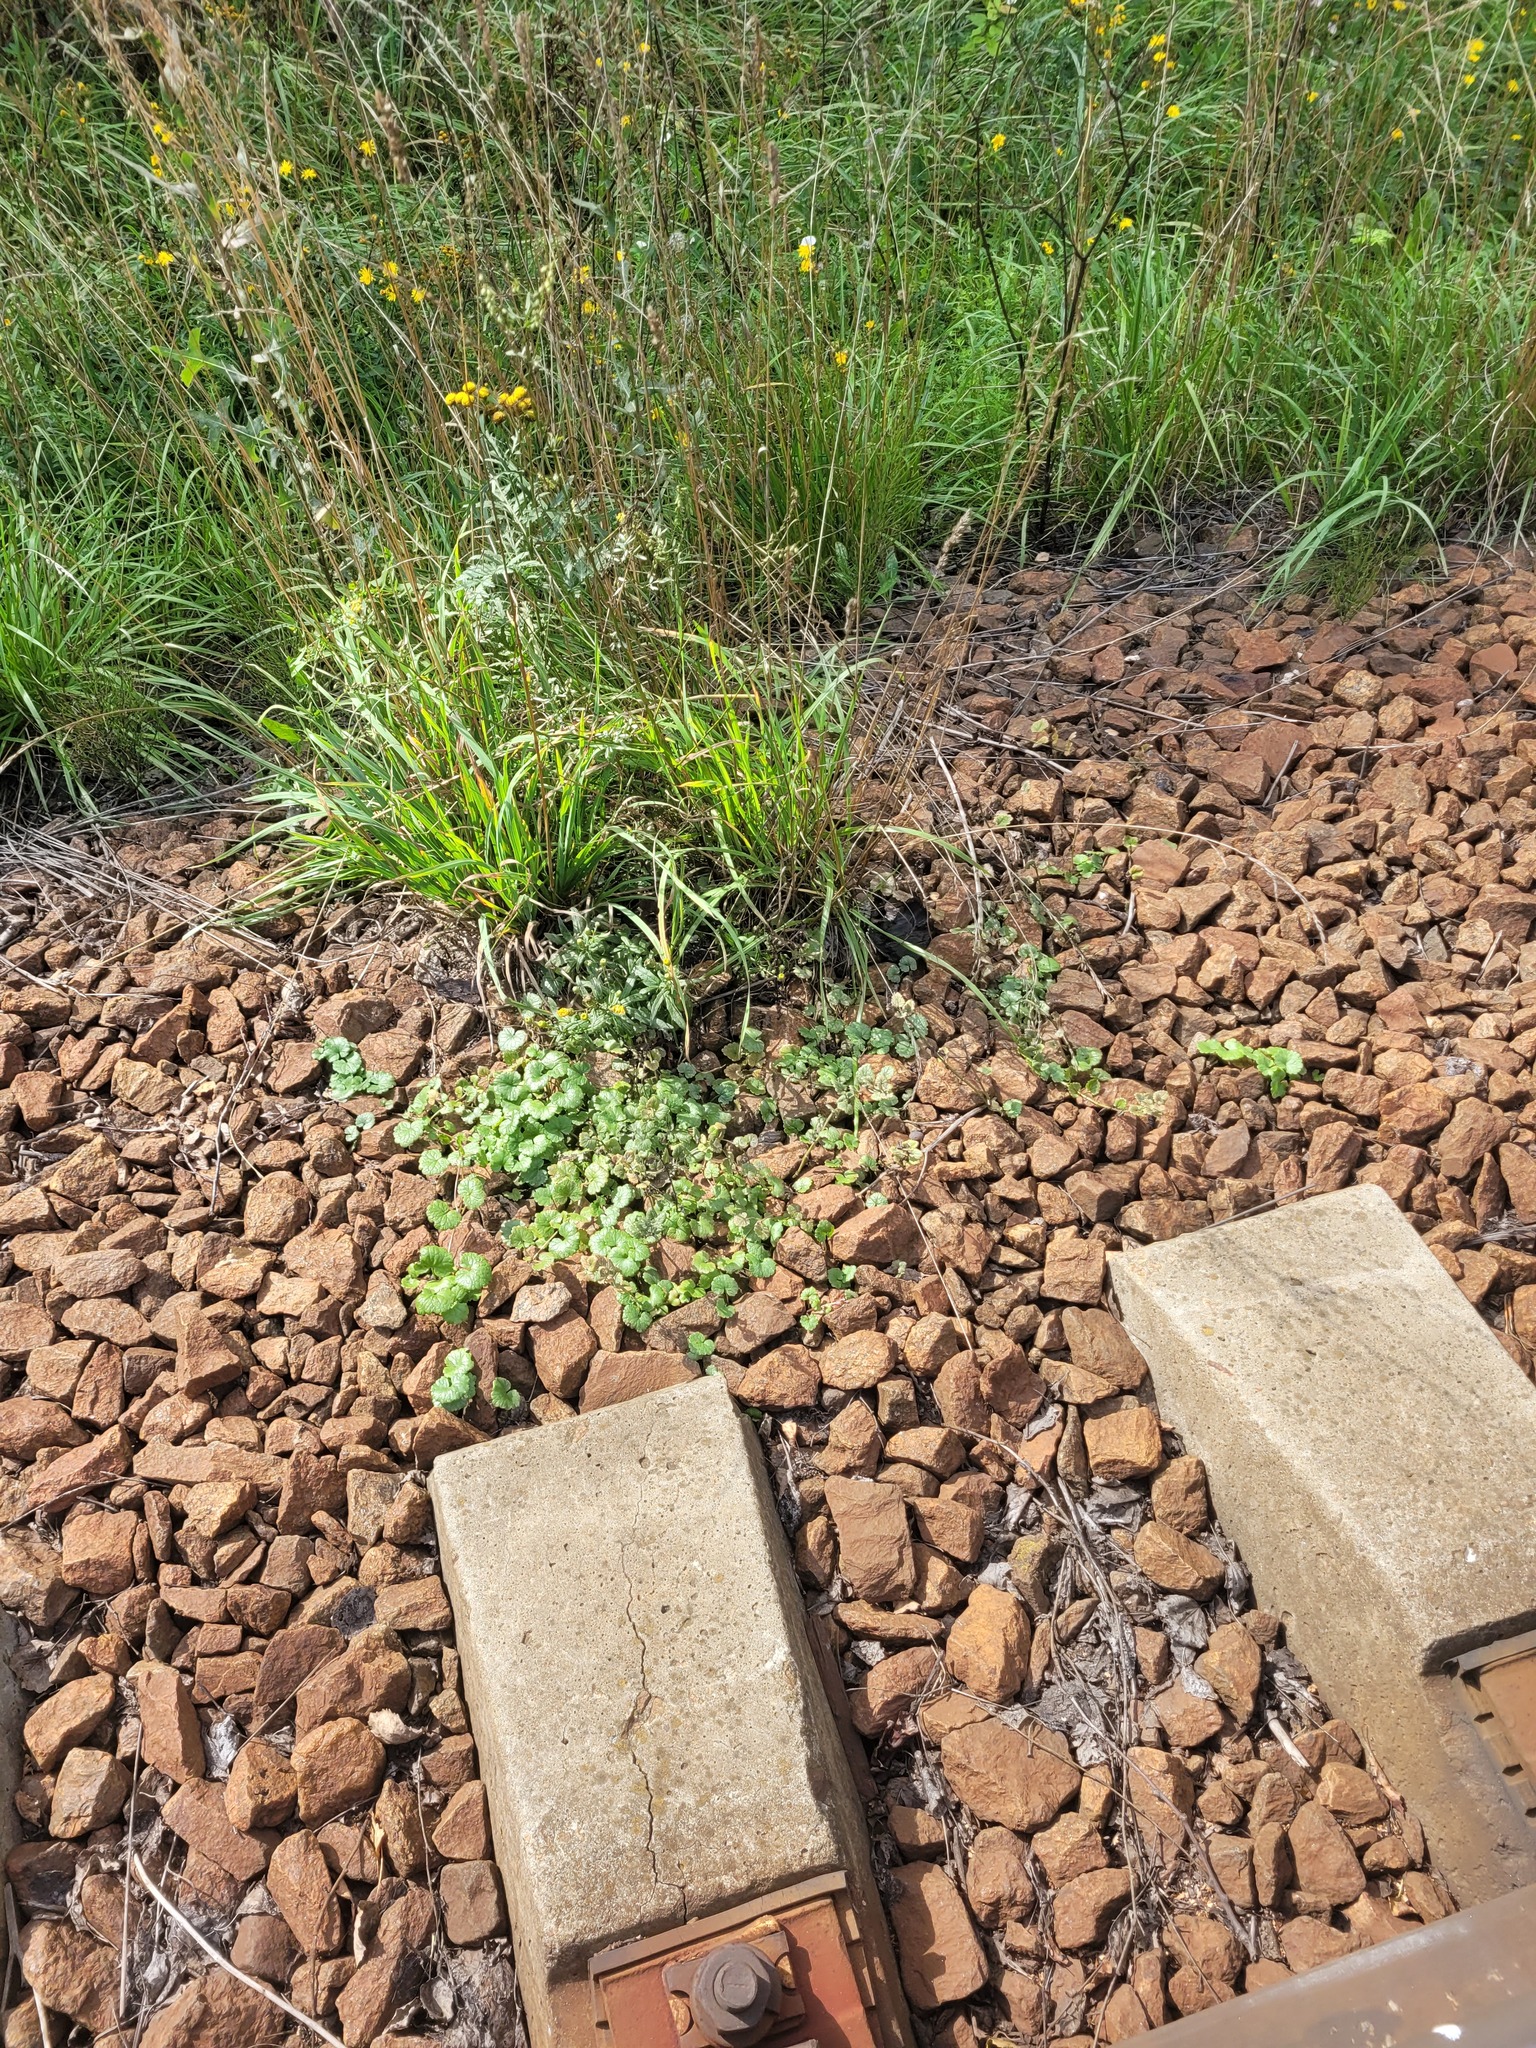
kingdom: Plantae
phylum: Tracheophyta
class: Magnoliopsida
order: Lamiales
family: Lamiaceae
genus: Glechoma
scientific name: Glechoma hederacea
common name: Ground ivy
